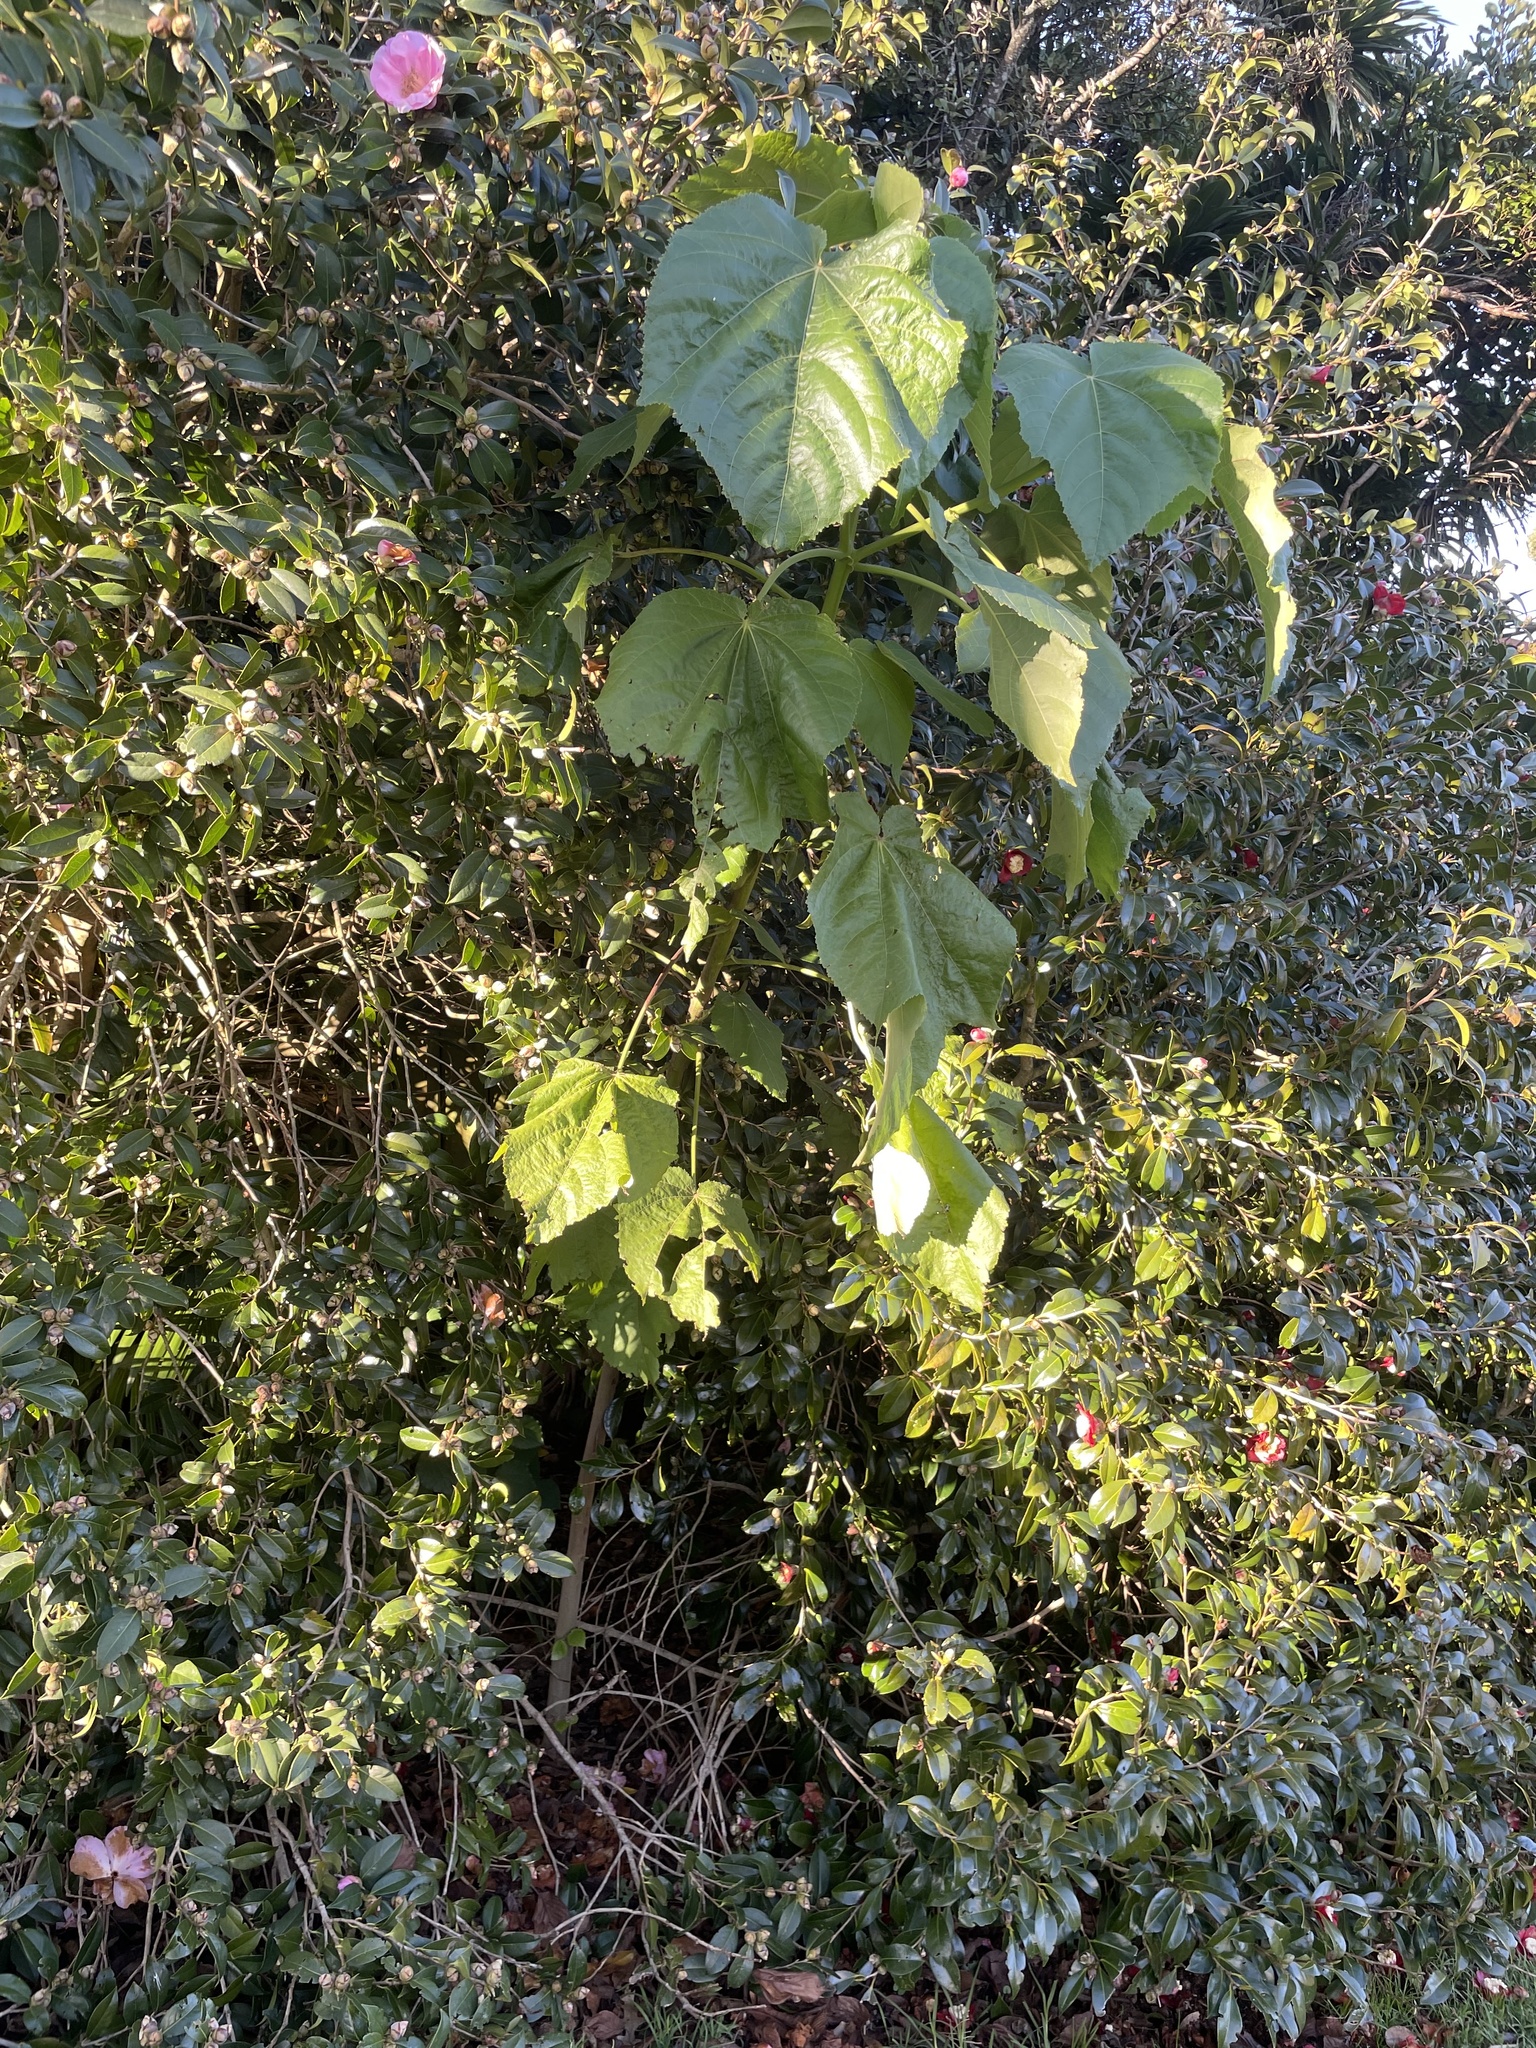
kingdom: Plantae
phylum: Tracheophyta
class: Magnoliopsida
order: Malvales
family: Malvaceae
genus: Entelea
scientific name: Entelea arborescens
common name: New zealand-mulberry
